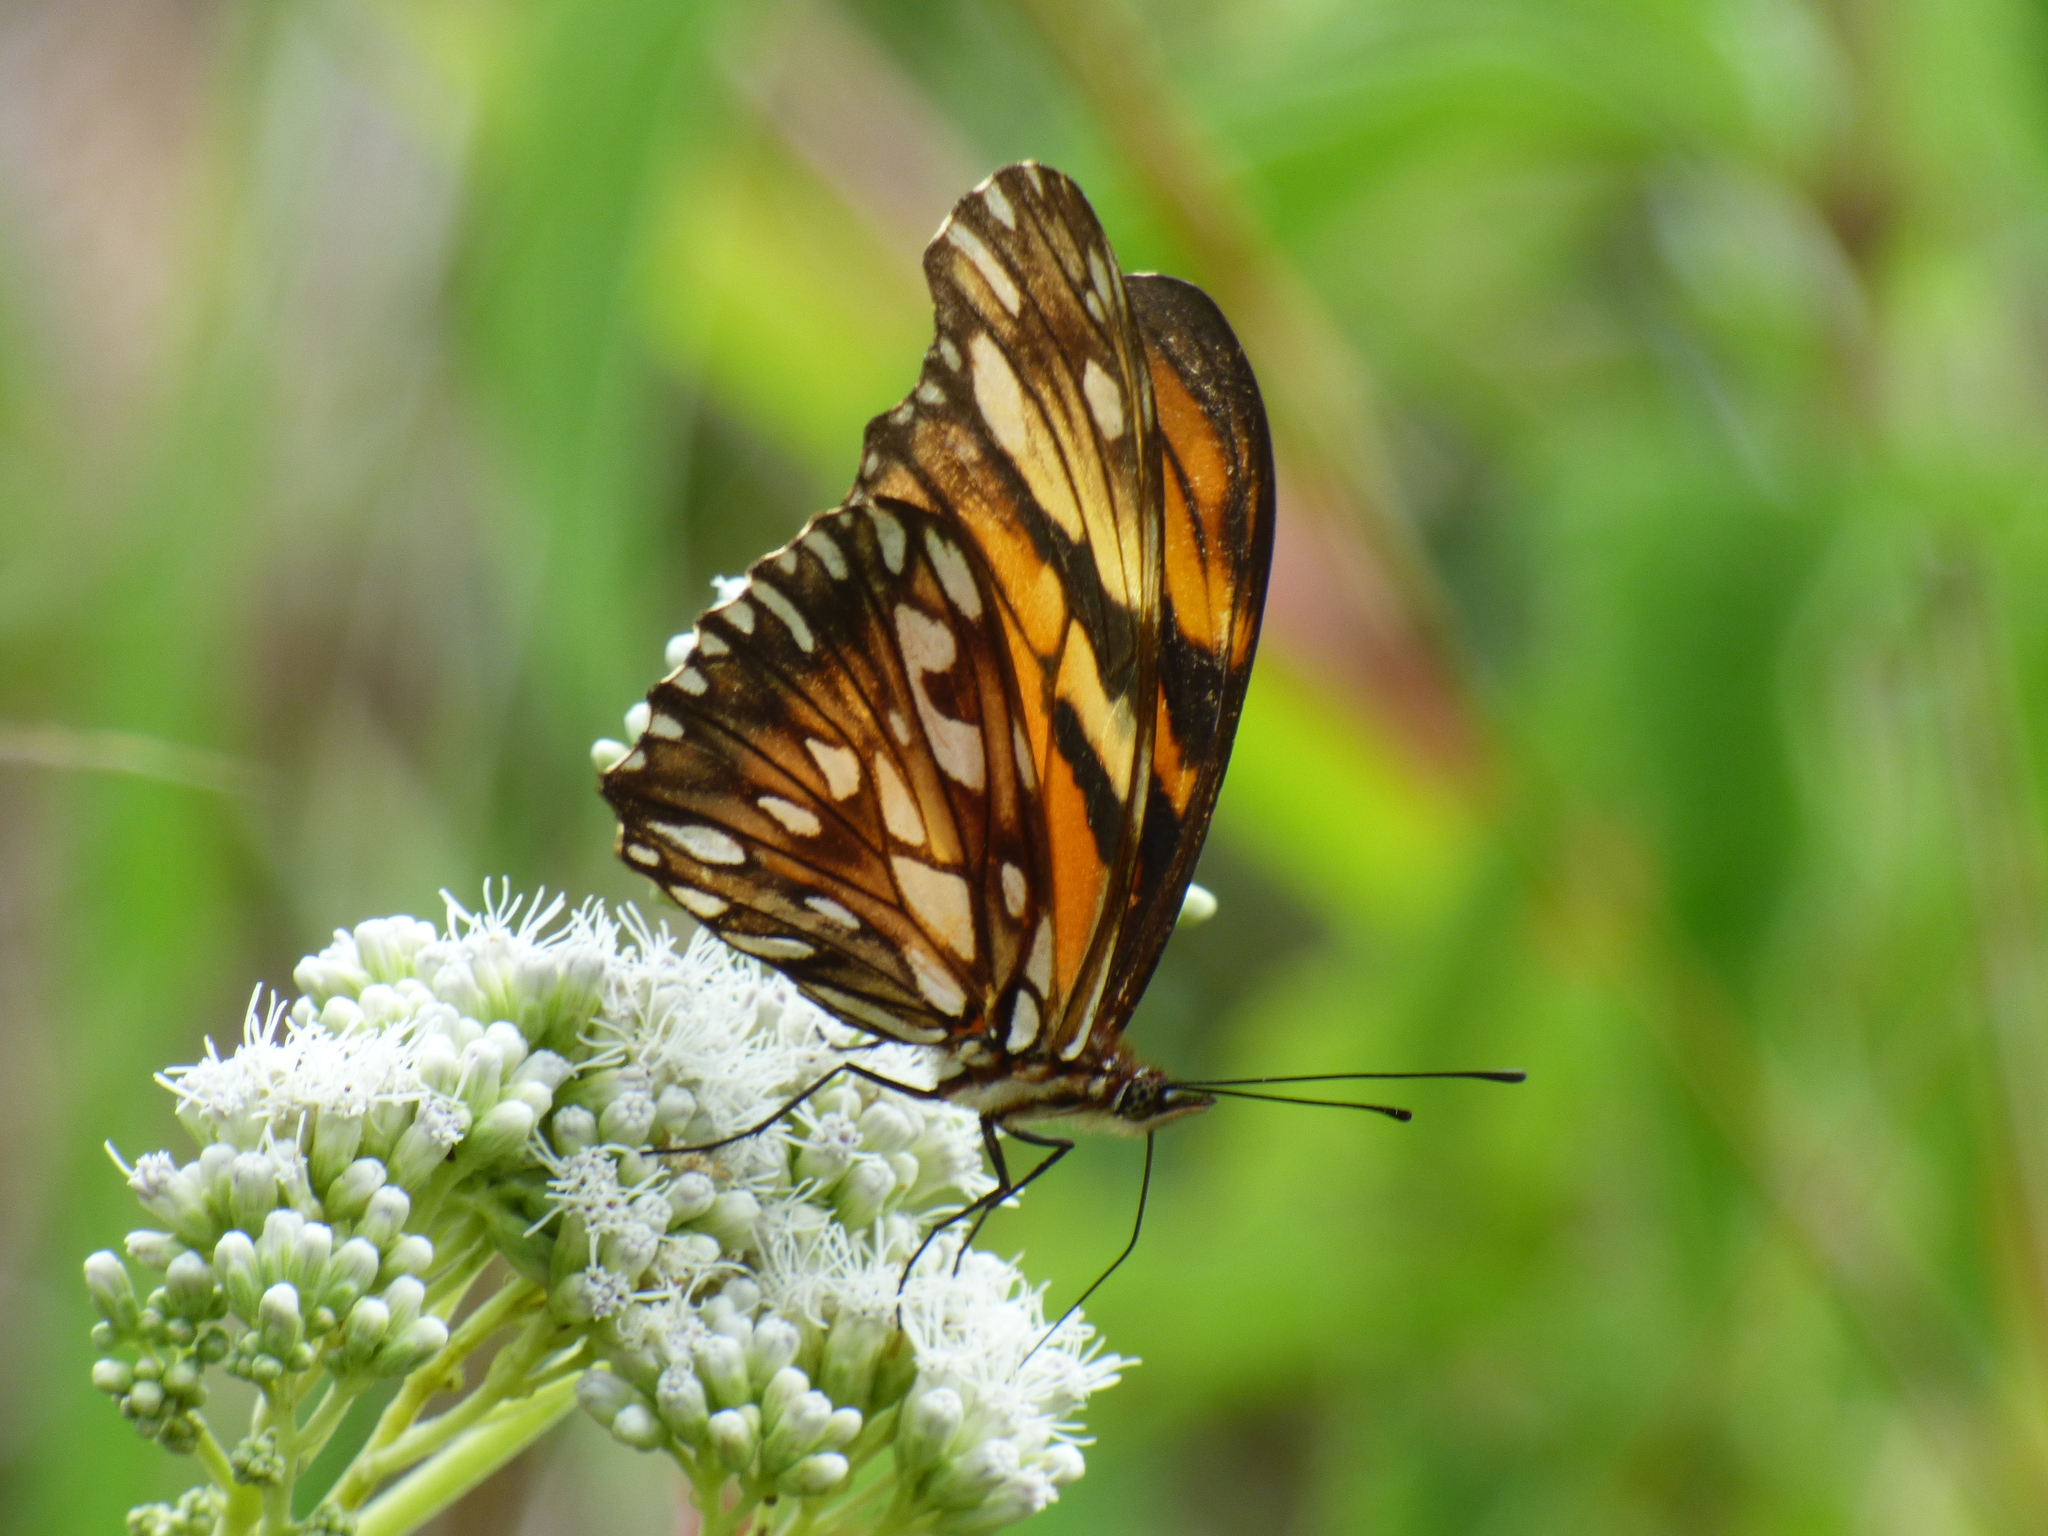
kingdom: Animalia
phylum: Arthropoda
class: Insecta
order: Lepidoptera
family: Nymphalidae
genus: Dione
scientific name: Dione juno
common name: Juno silverspot
